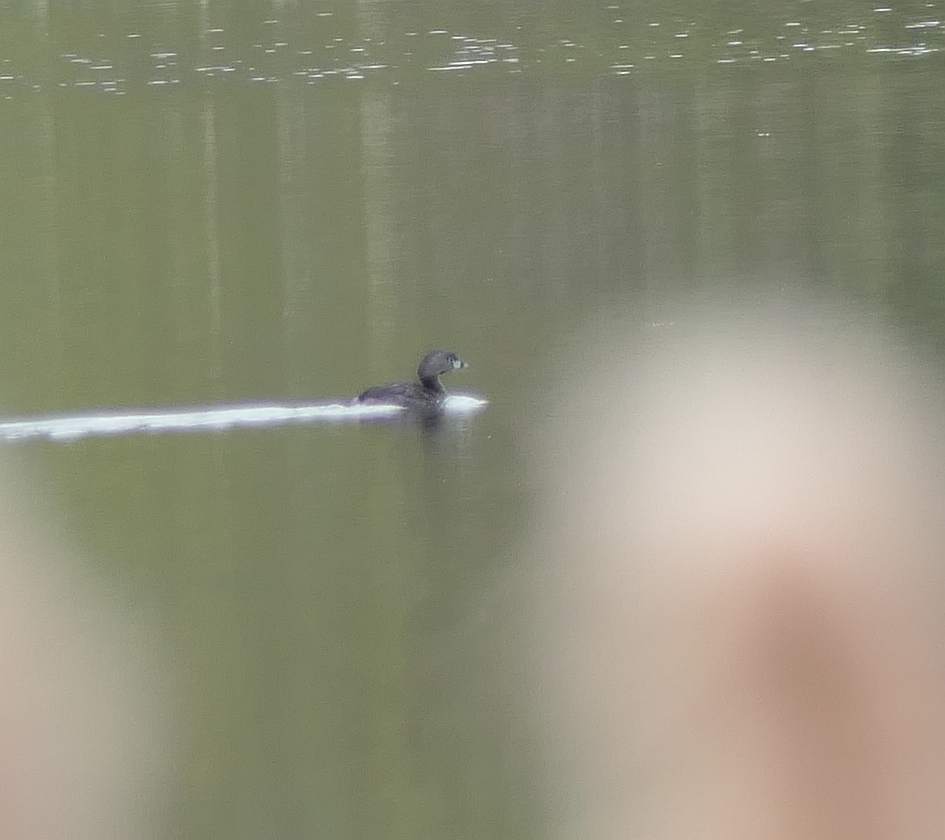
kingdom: Animalia
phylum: Chordata
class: Aves
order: Podicipediformes
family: Podicipedidae
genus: Podilymbus
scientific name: Podilymbus podiceps
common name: Pied-billed grebe
